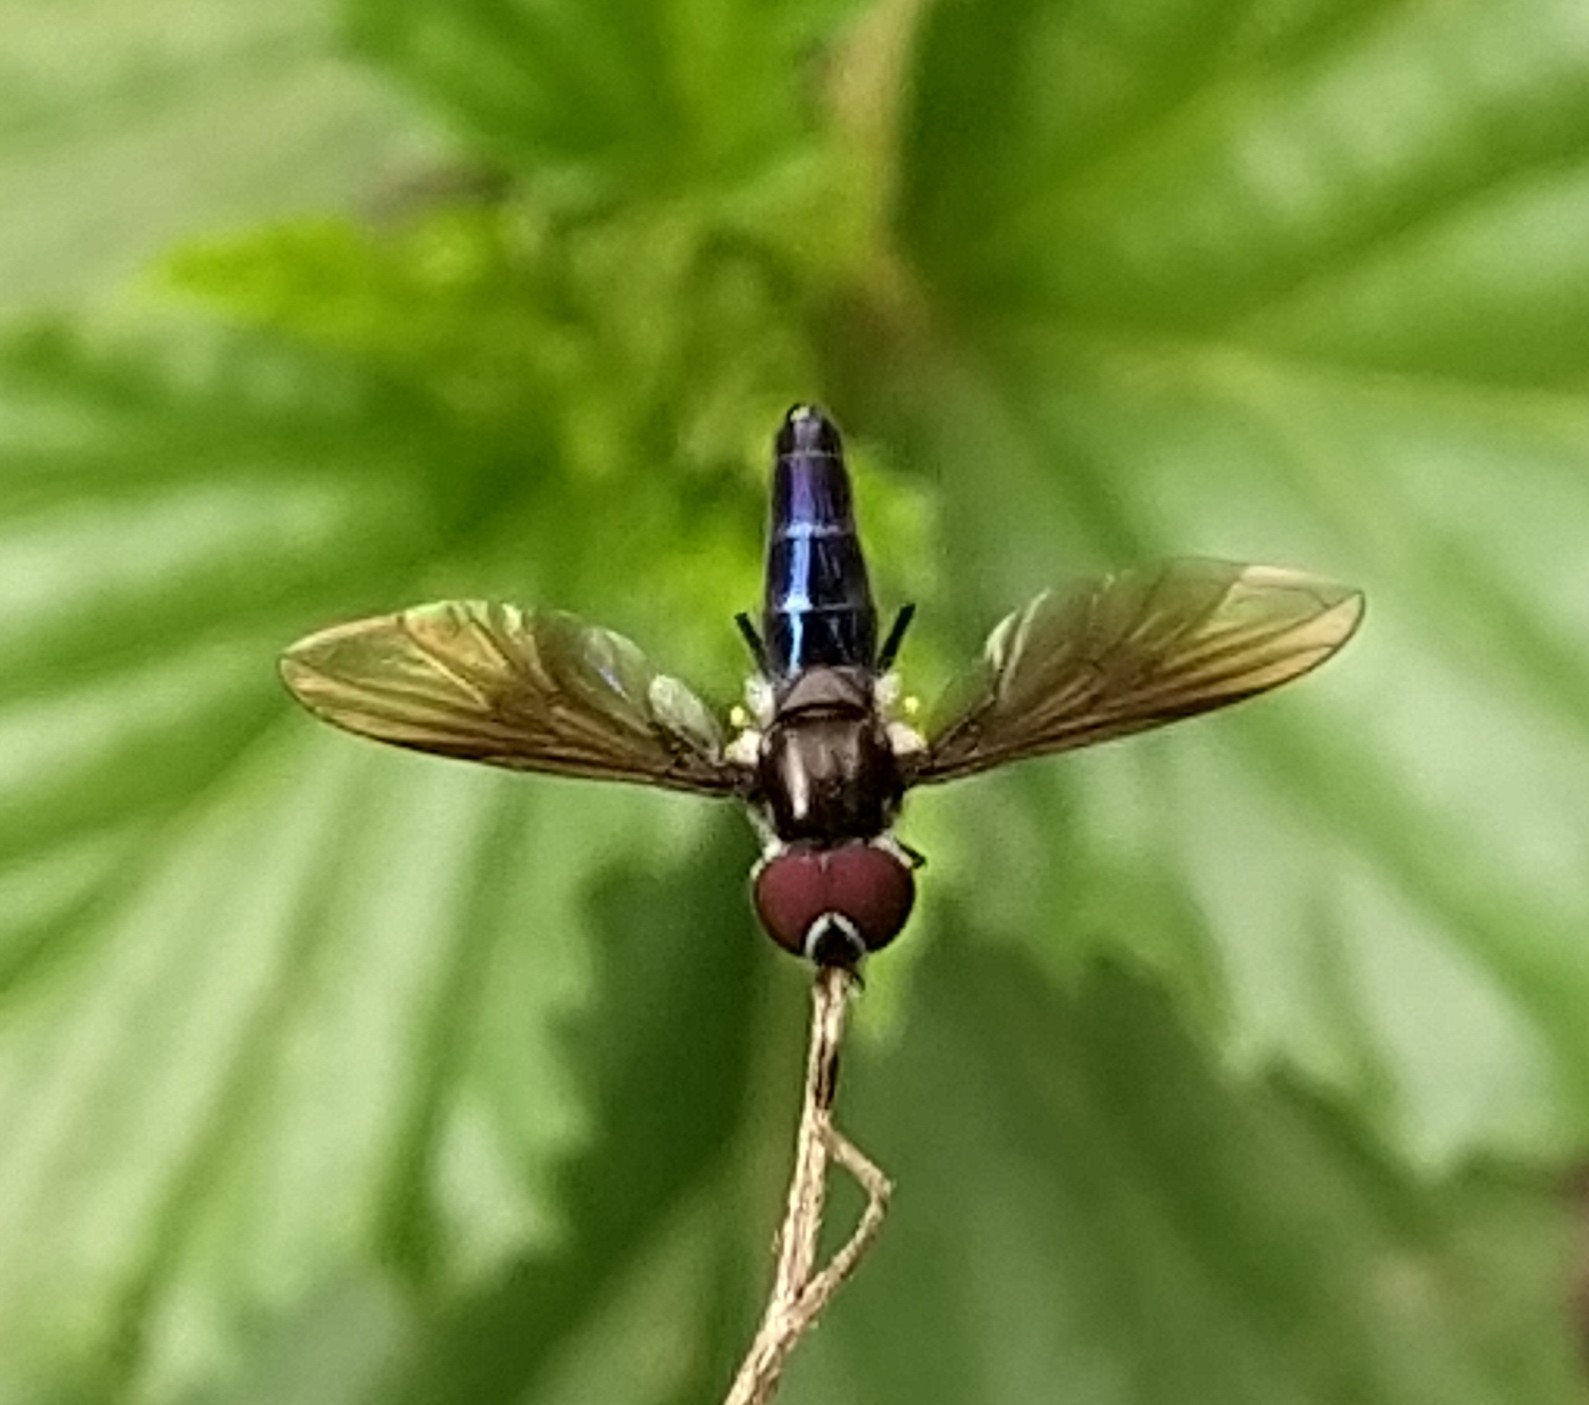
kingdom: Animalia
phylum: Arthropoda
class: Insecta
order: Diptera
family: Syrphidae
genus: Ocyptamus
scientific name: Ocyptamus dimidiatus
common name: Syrphid fly
